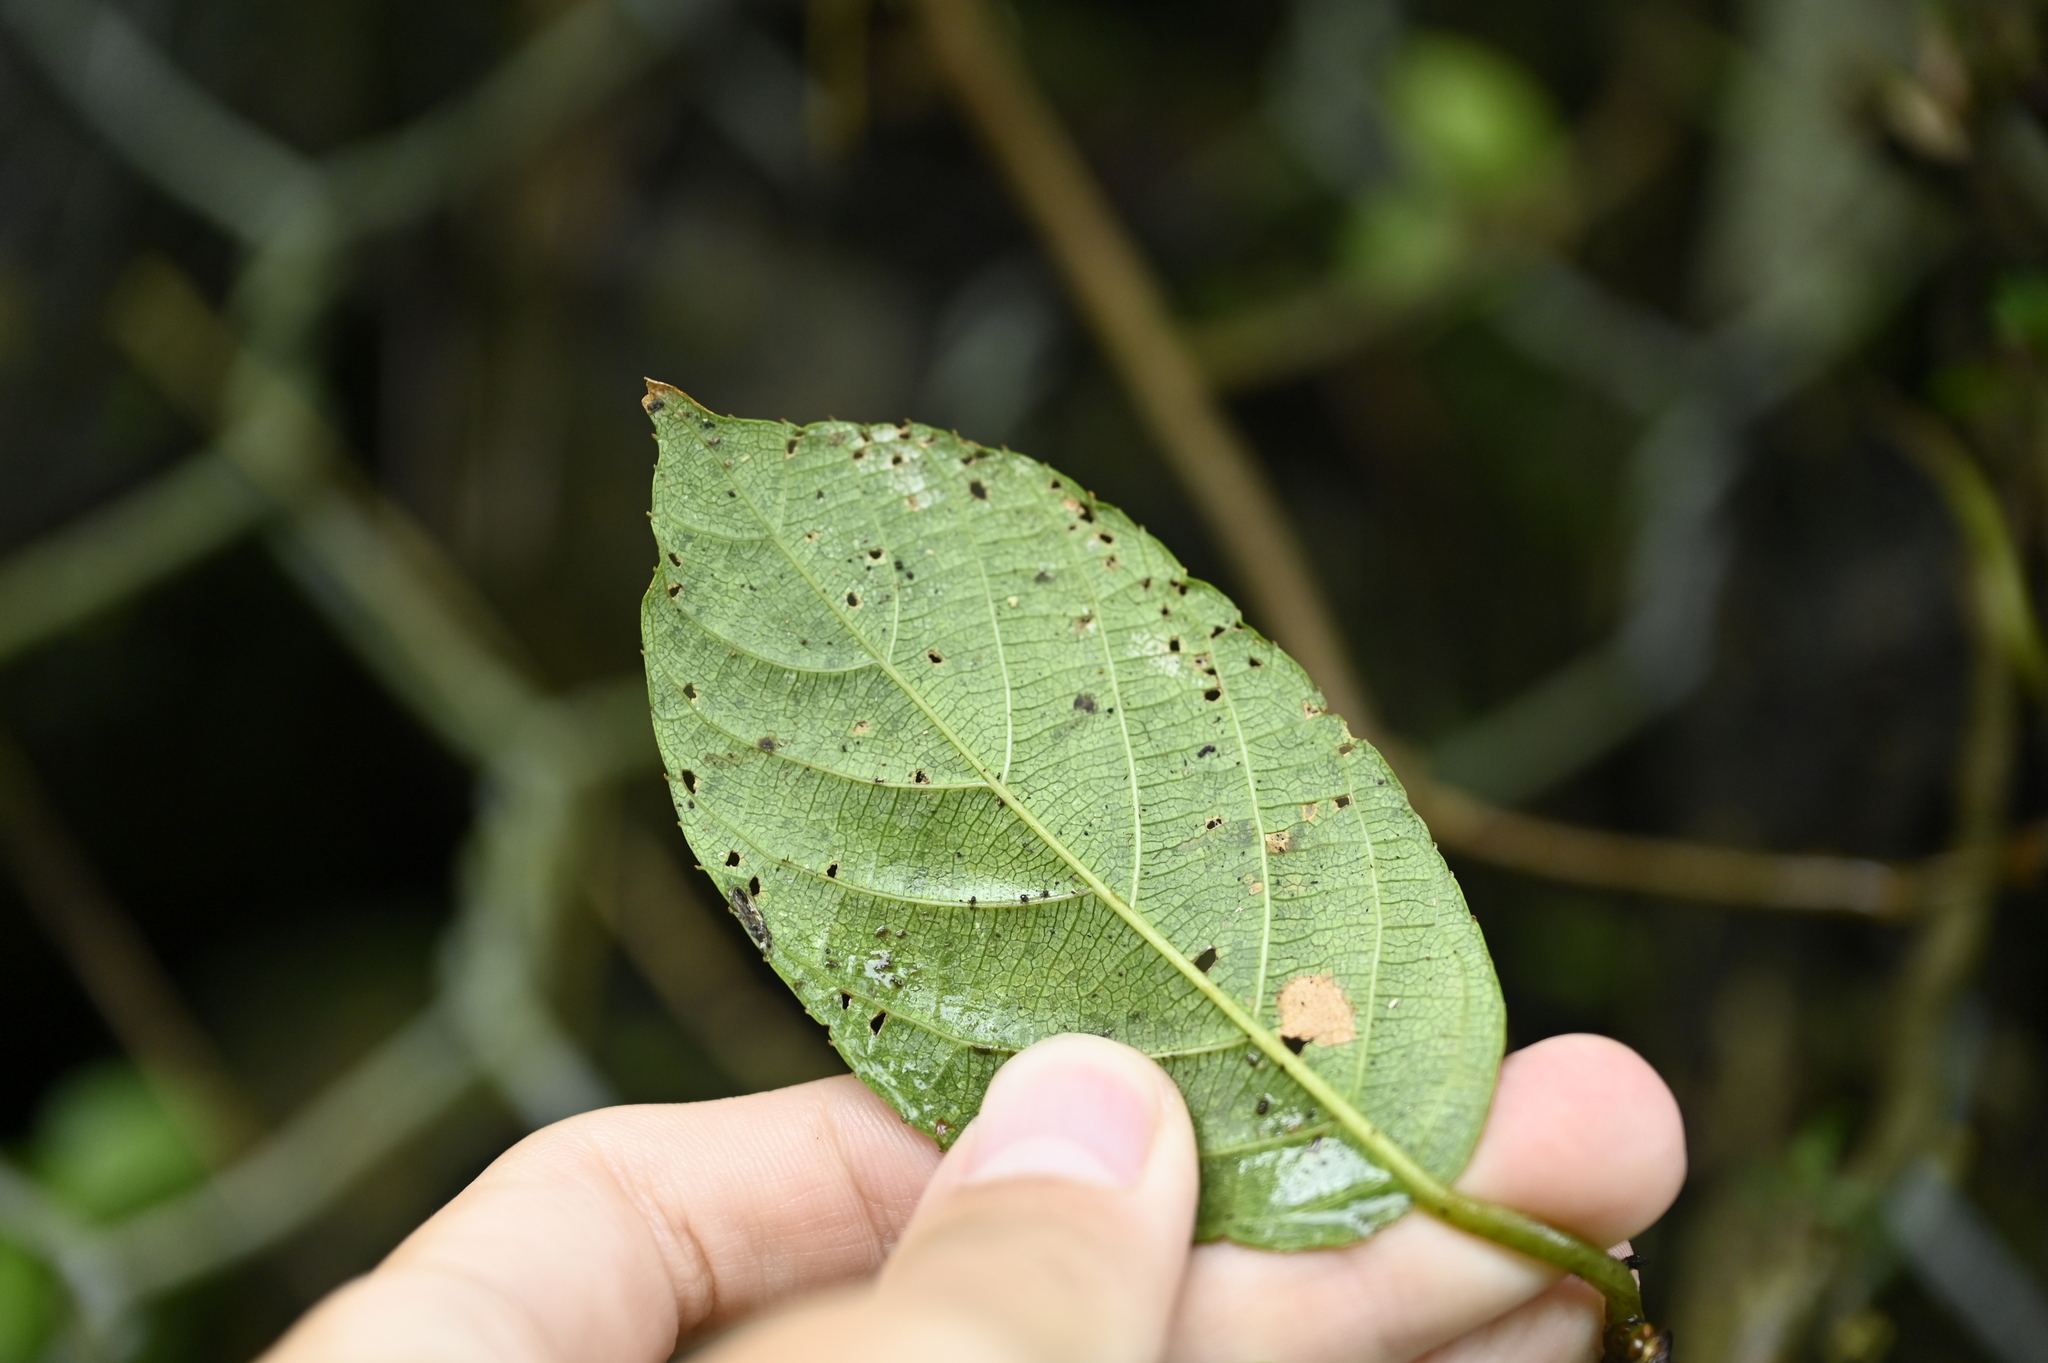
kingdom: Plantae
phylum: Tracheophyta
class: Magnoliopsida
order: Ericales
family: Actinidiaceae
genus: Actinidia
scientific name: Actinidia rufa
